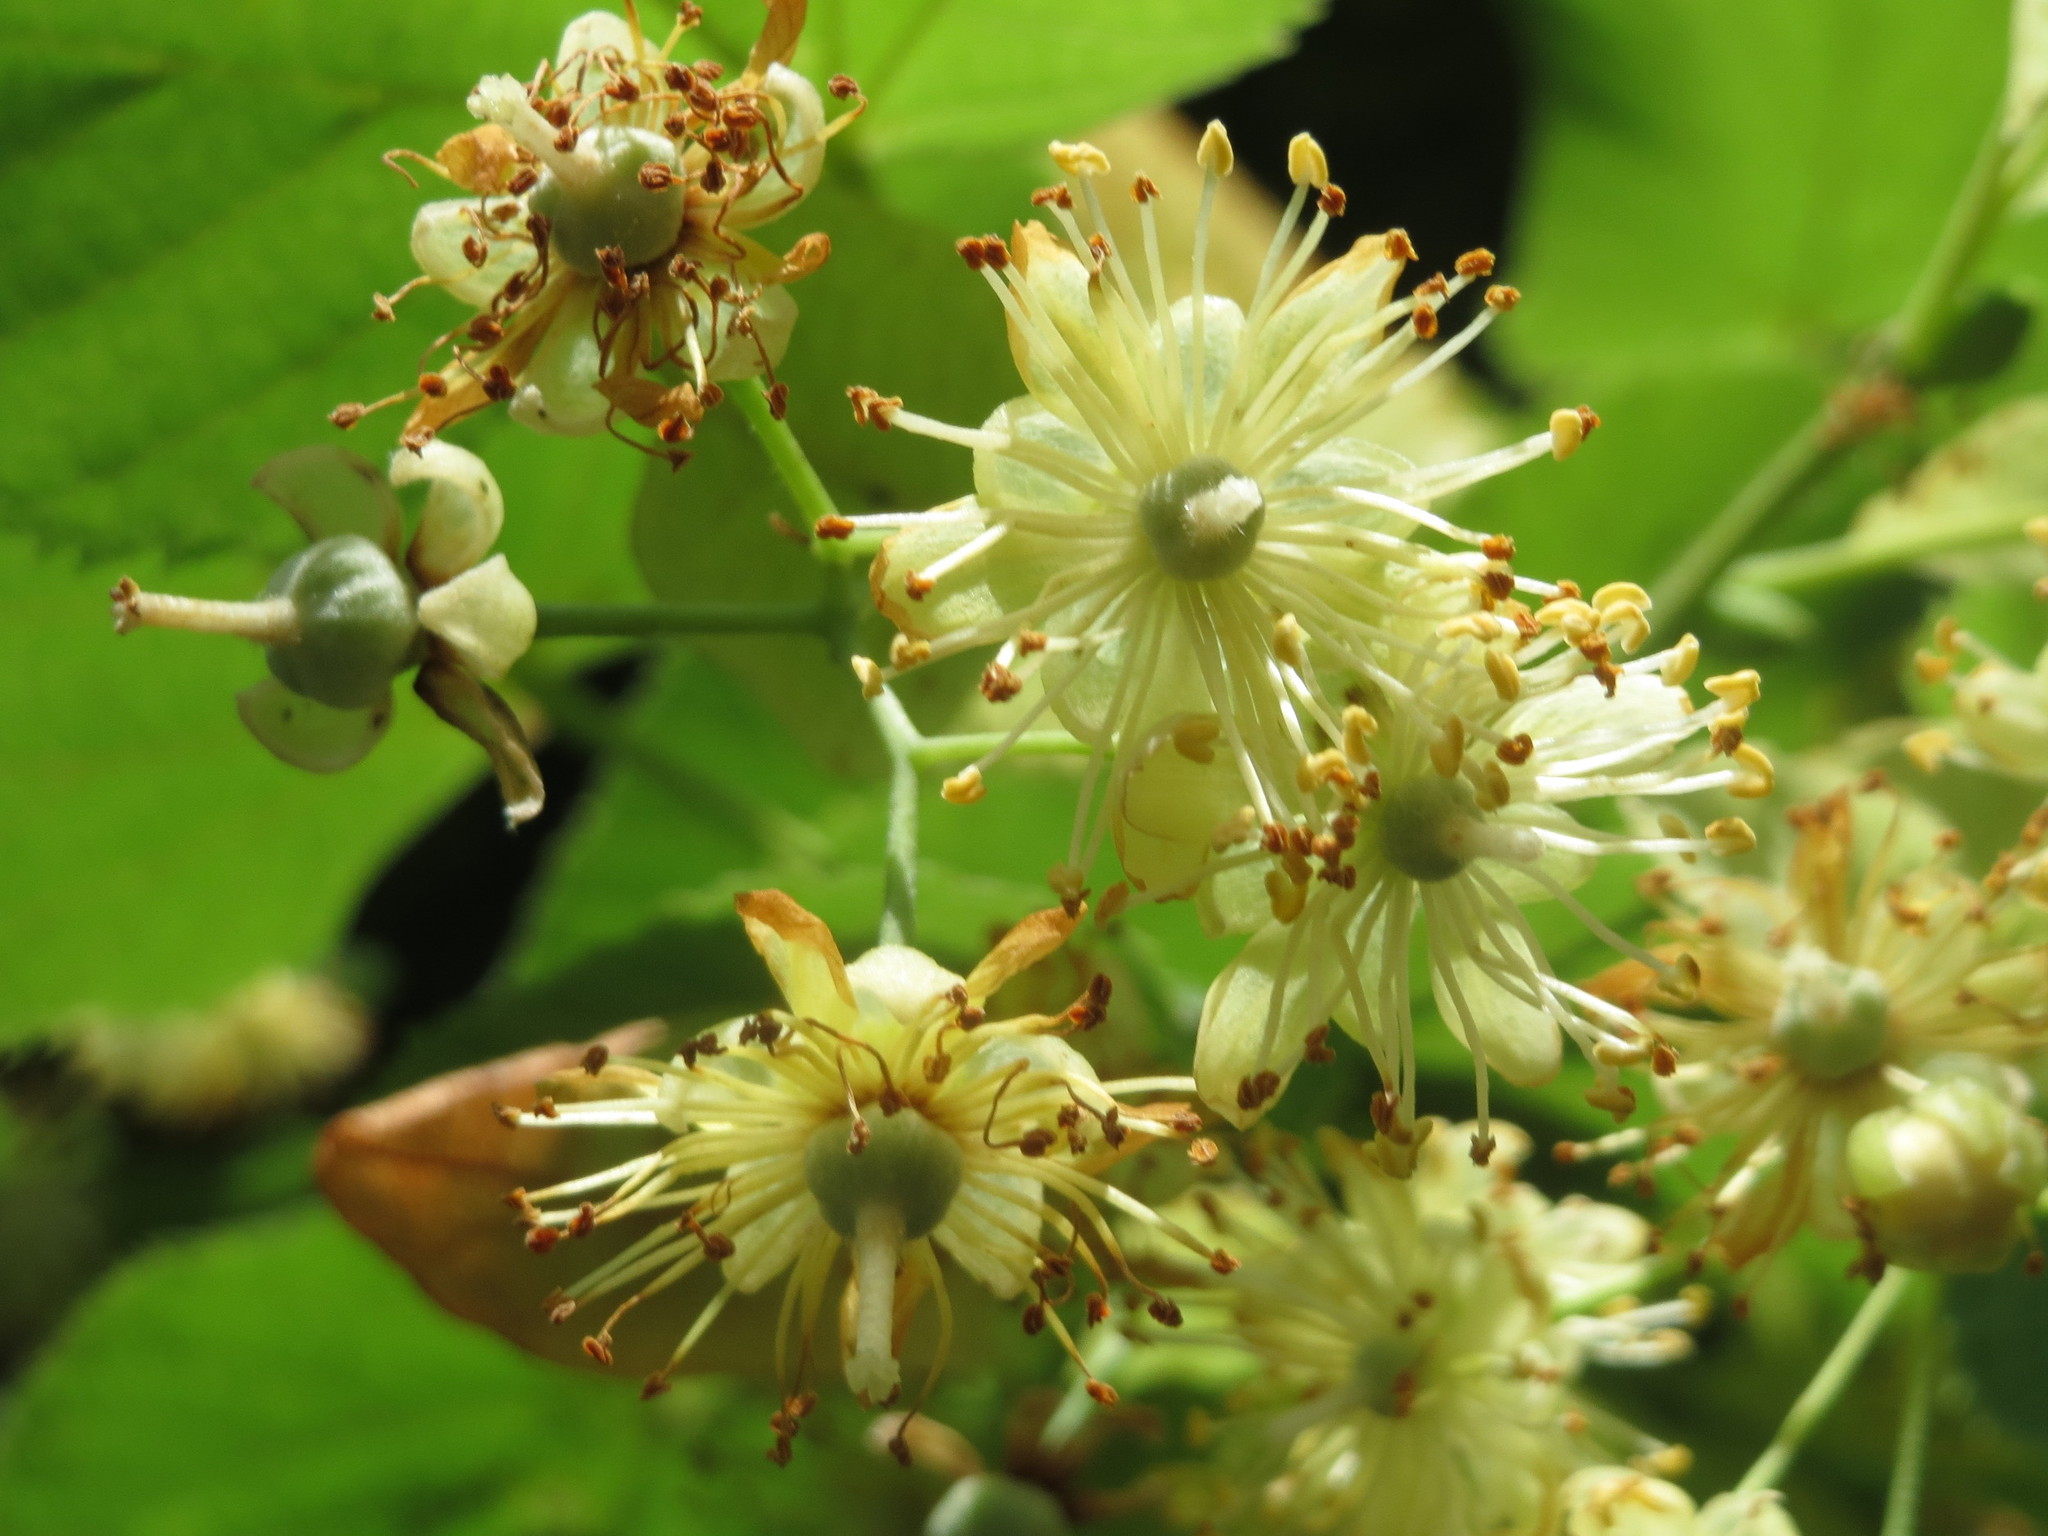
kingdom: Plantae
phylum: Tracheophyta
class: Magnoliopsida
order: Malvales
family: Malvaceae
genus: Tilia
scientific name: Tilia cordata
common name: Small-leaved lime
